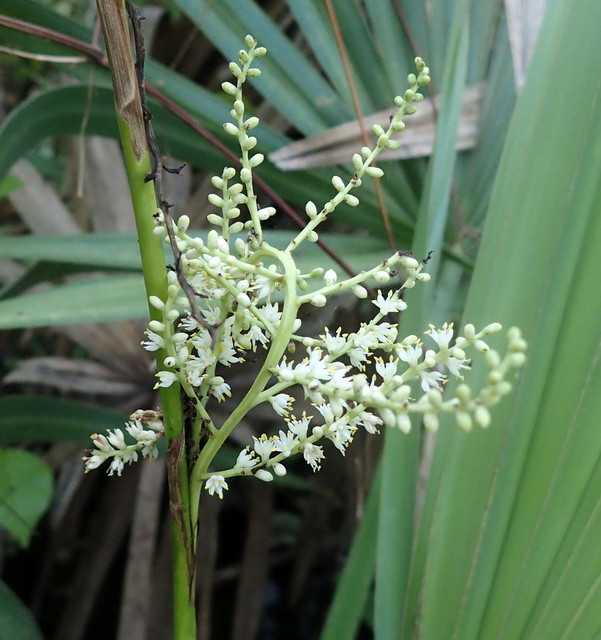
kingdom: Plantae
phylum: Tracheophyta
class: Liliopsida
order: Arecales
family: Arecaceae
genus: Sabal
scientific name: Sabal minor
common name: Dwarf palmetto
